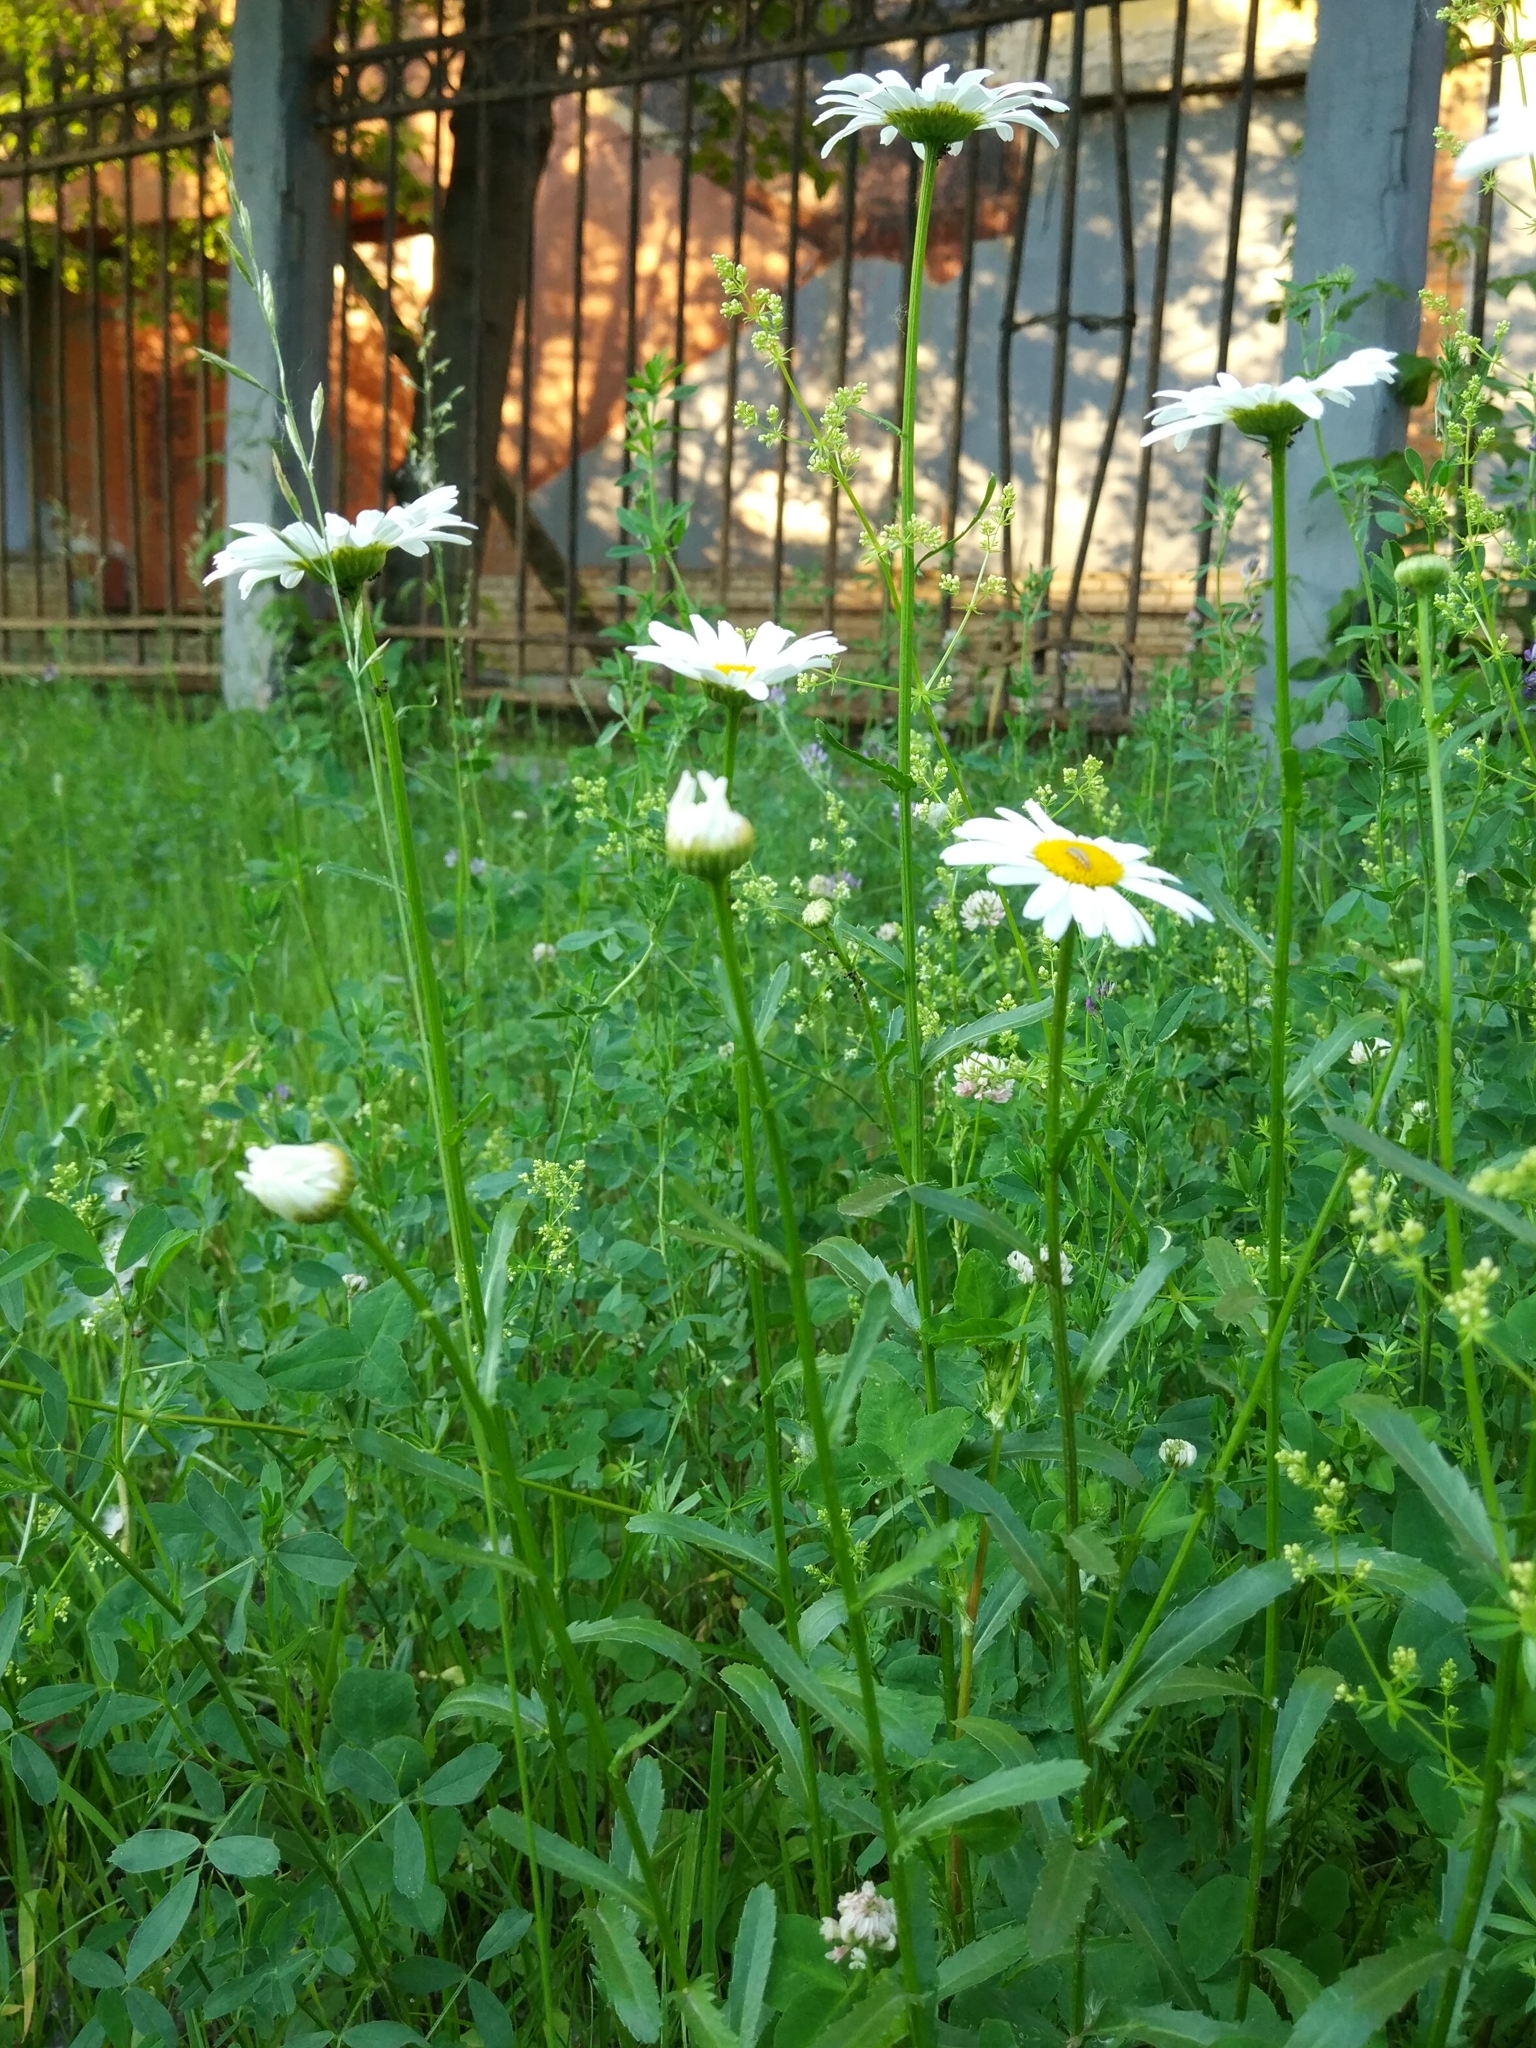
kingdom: Plantae
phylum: Tracheophyta
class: Magnoliopsida
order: Asterales
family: Asteraceae
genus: Leucanthemum
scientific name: Leucanthemum vulgare
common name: Oxeye daisy
